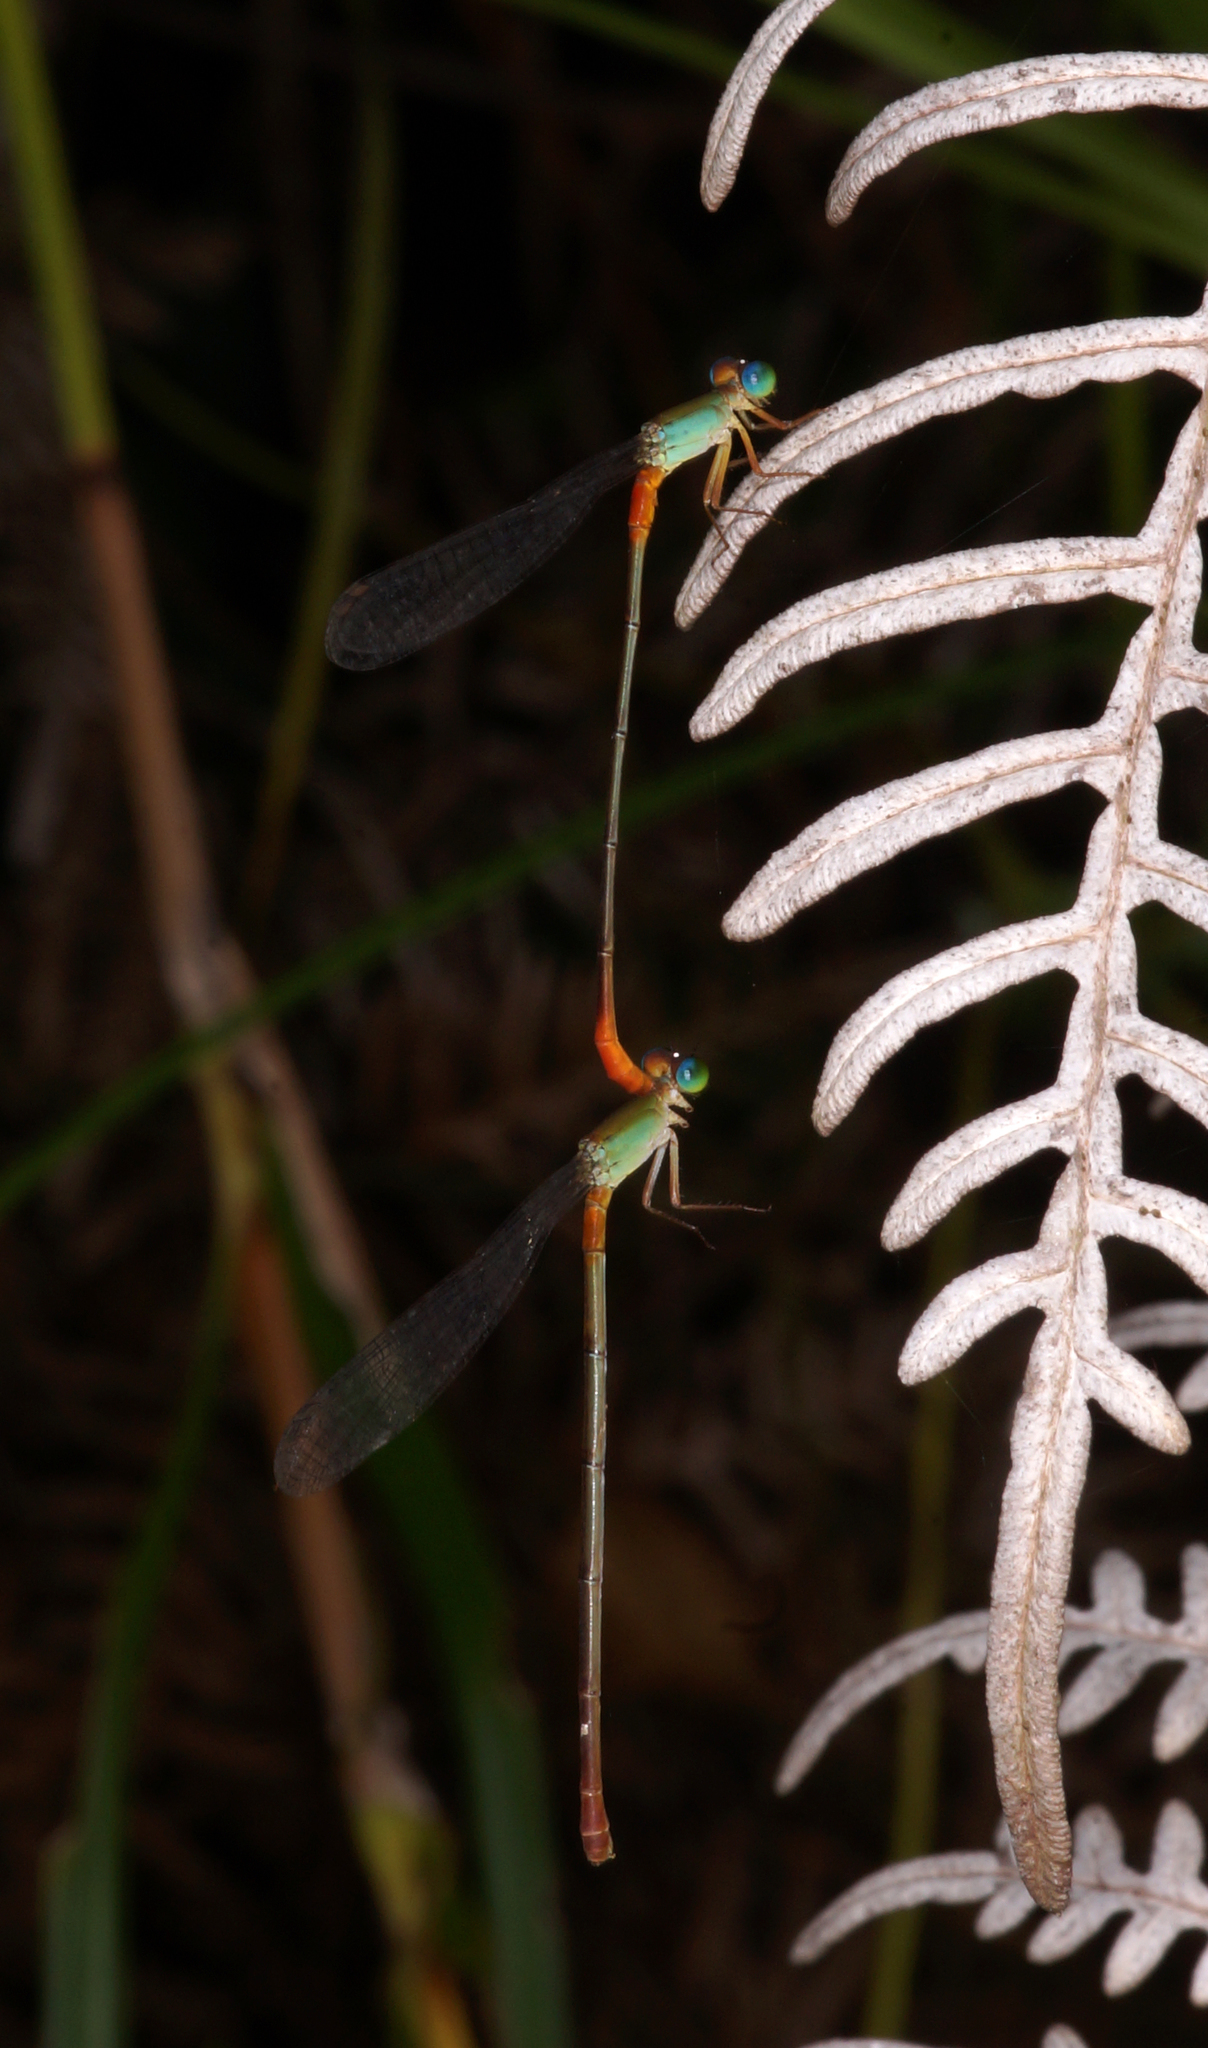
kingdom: Animalia
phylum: Arthropoda
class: Insecta
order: Odonata
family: Coenagrionidae
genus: Ceriagrion
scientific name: Ceriagrion cerinorubellum
